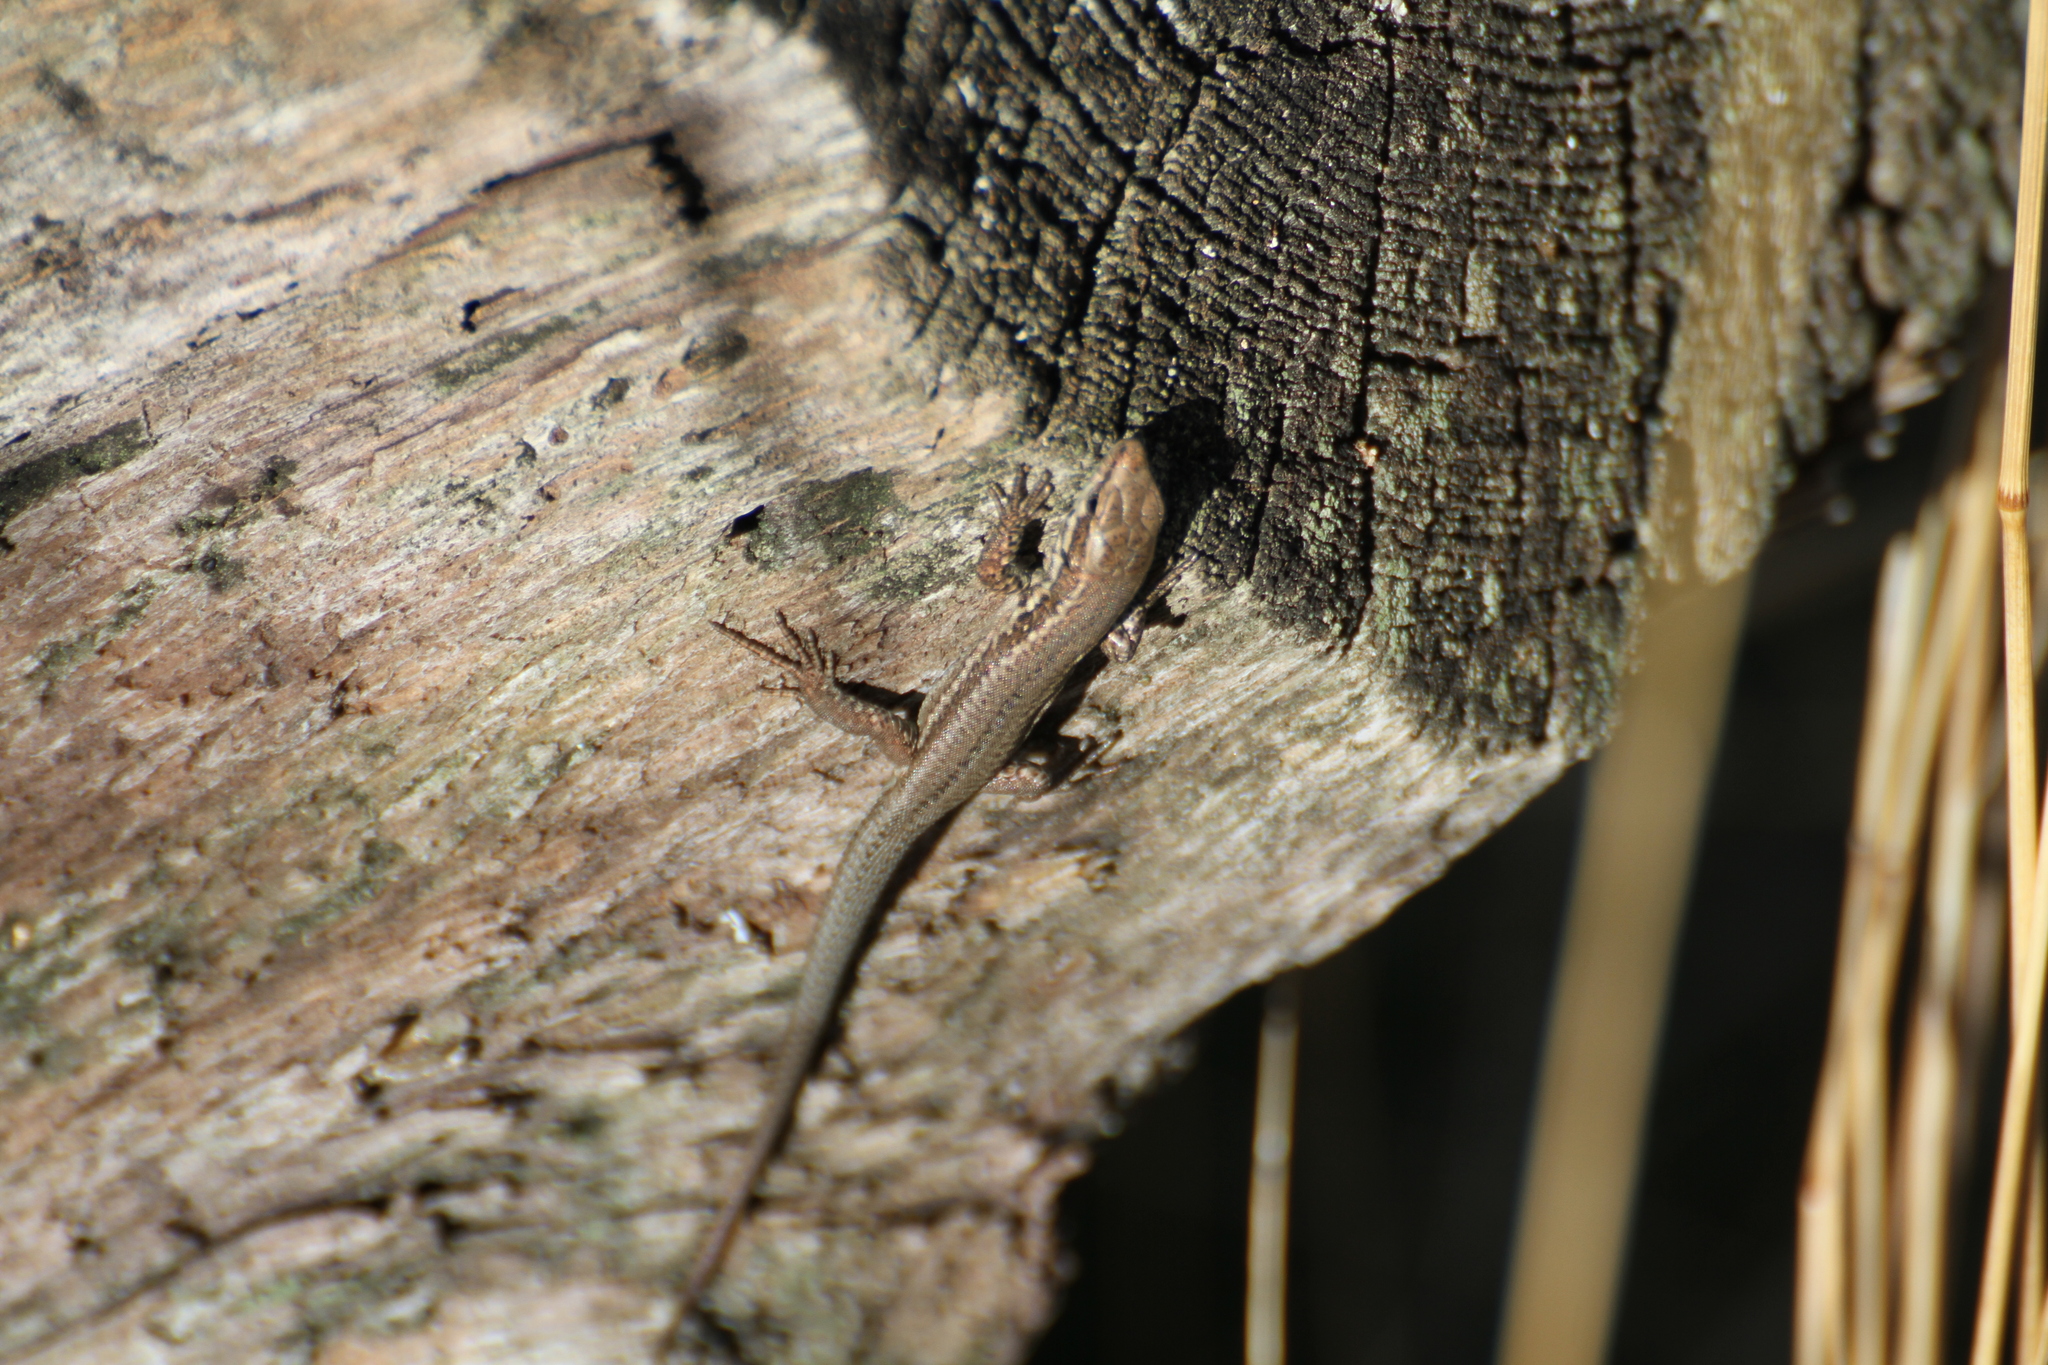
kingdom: Animalia
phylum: Chordata
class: Squamata
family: Lacertidae
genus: Podarcis
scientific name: Podarcis muralis
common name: Common wall lizard
